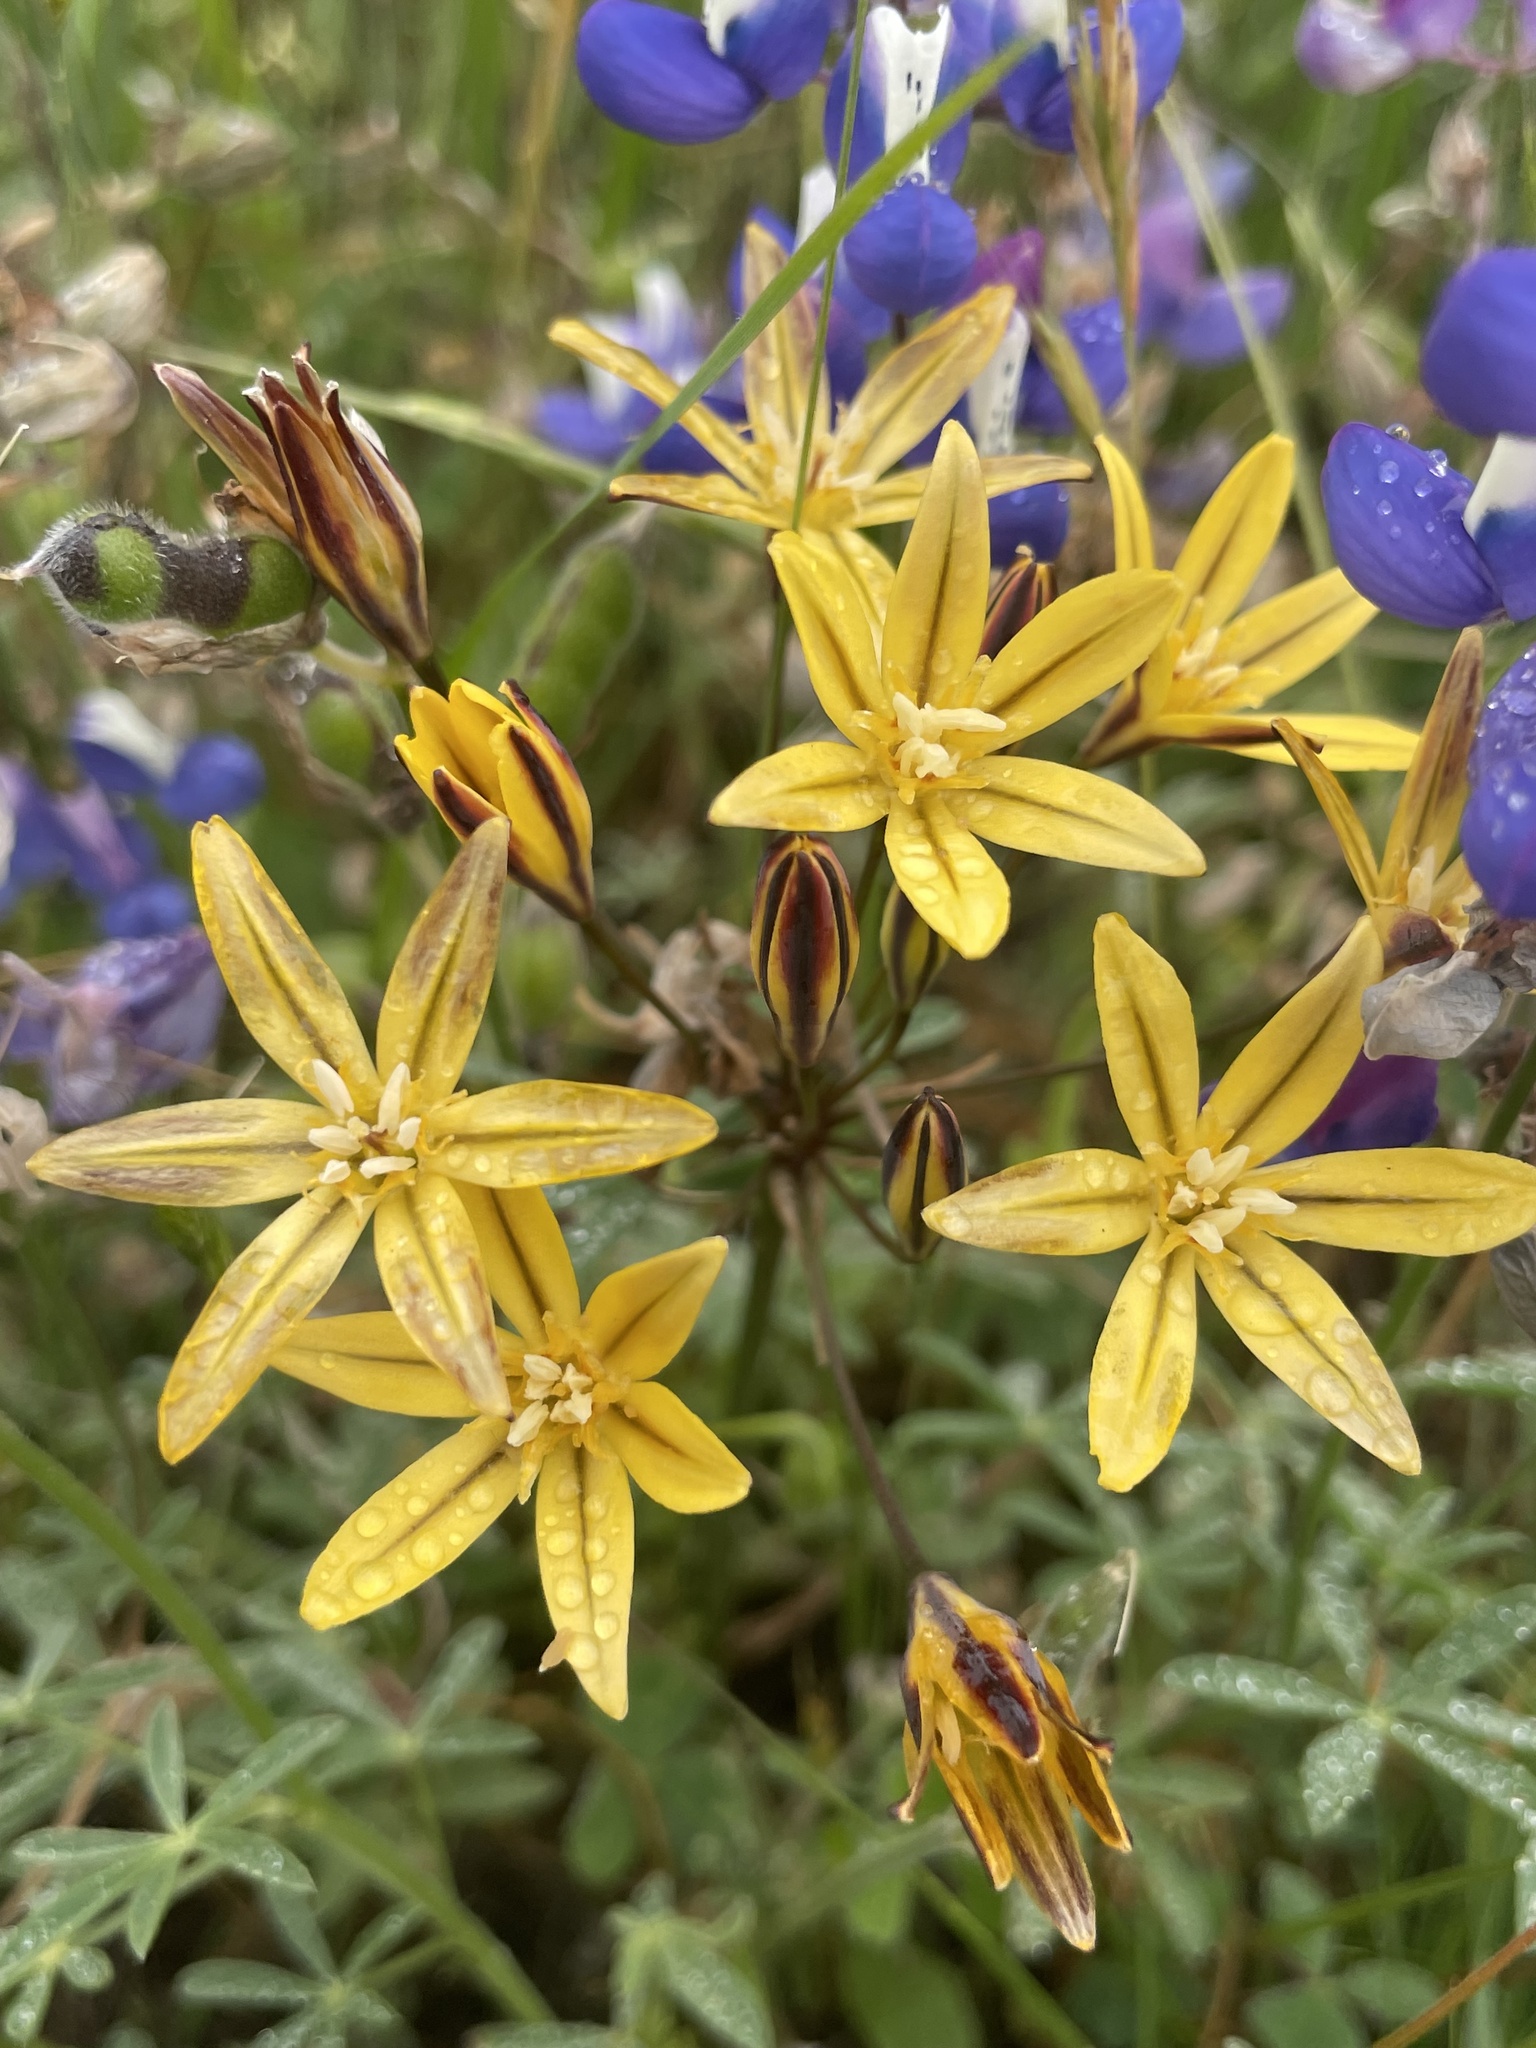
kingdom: Plantae
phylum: Tracheophyta
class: Liliopsida
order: Asparagales
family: Asparagaceae
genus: Triteleia
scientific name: Triteleia ixioides
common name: Yellow-brodiaea
